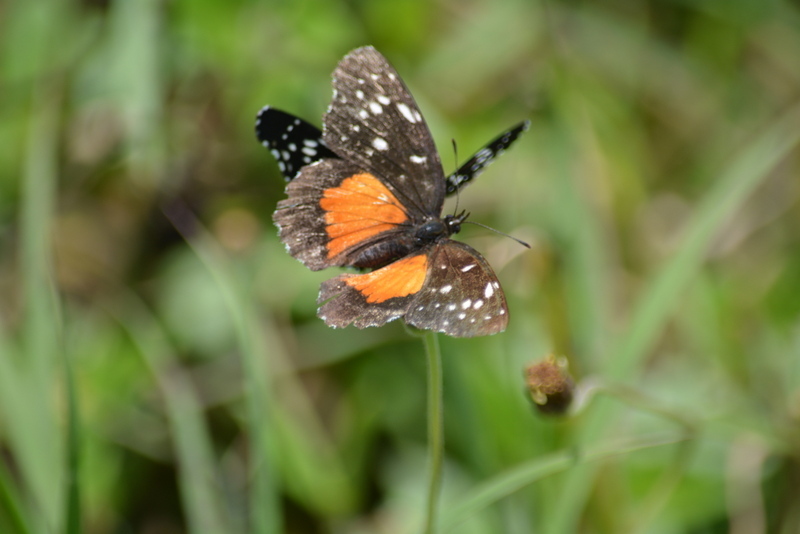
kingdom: Animalia
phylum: Arthropoda
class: Insecta
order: Lepidoptera
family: Nymphalidae
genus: Chlosyne
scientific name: Chlosyne lacinia
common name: Bordered patch
